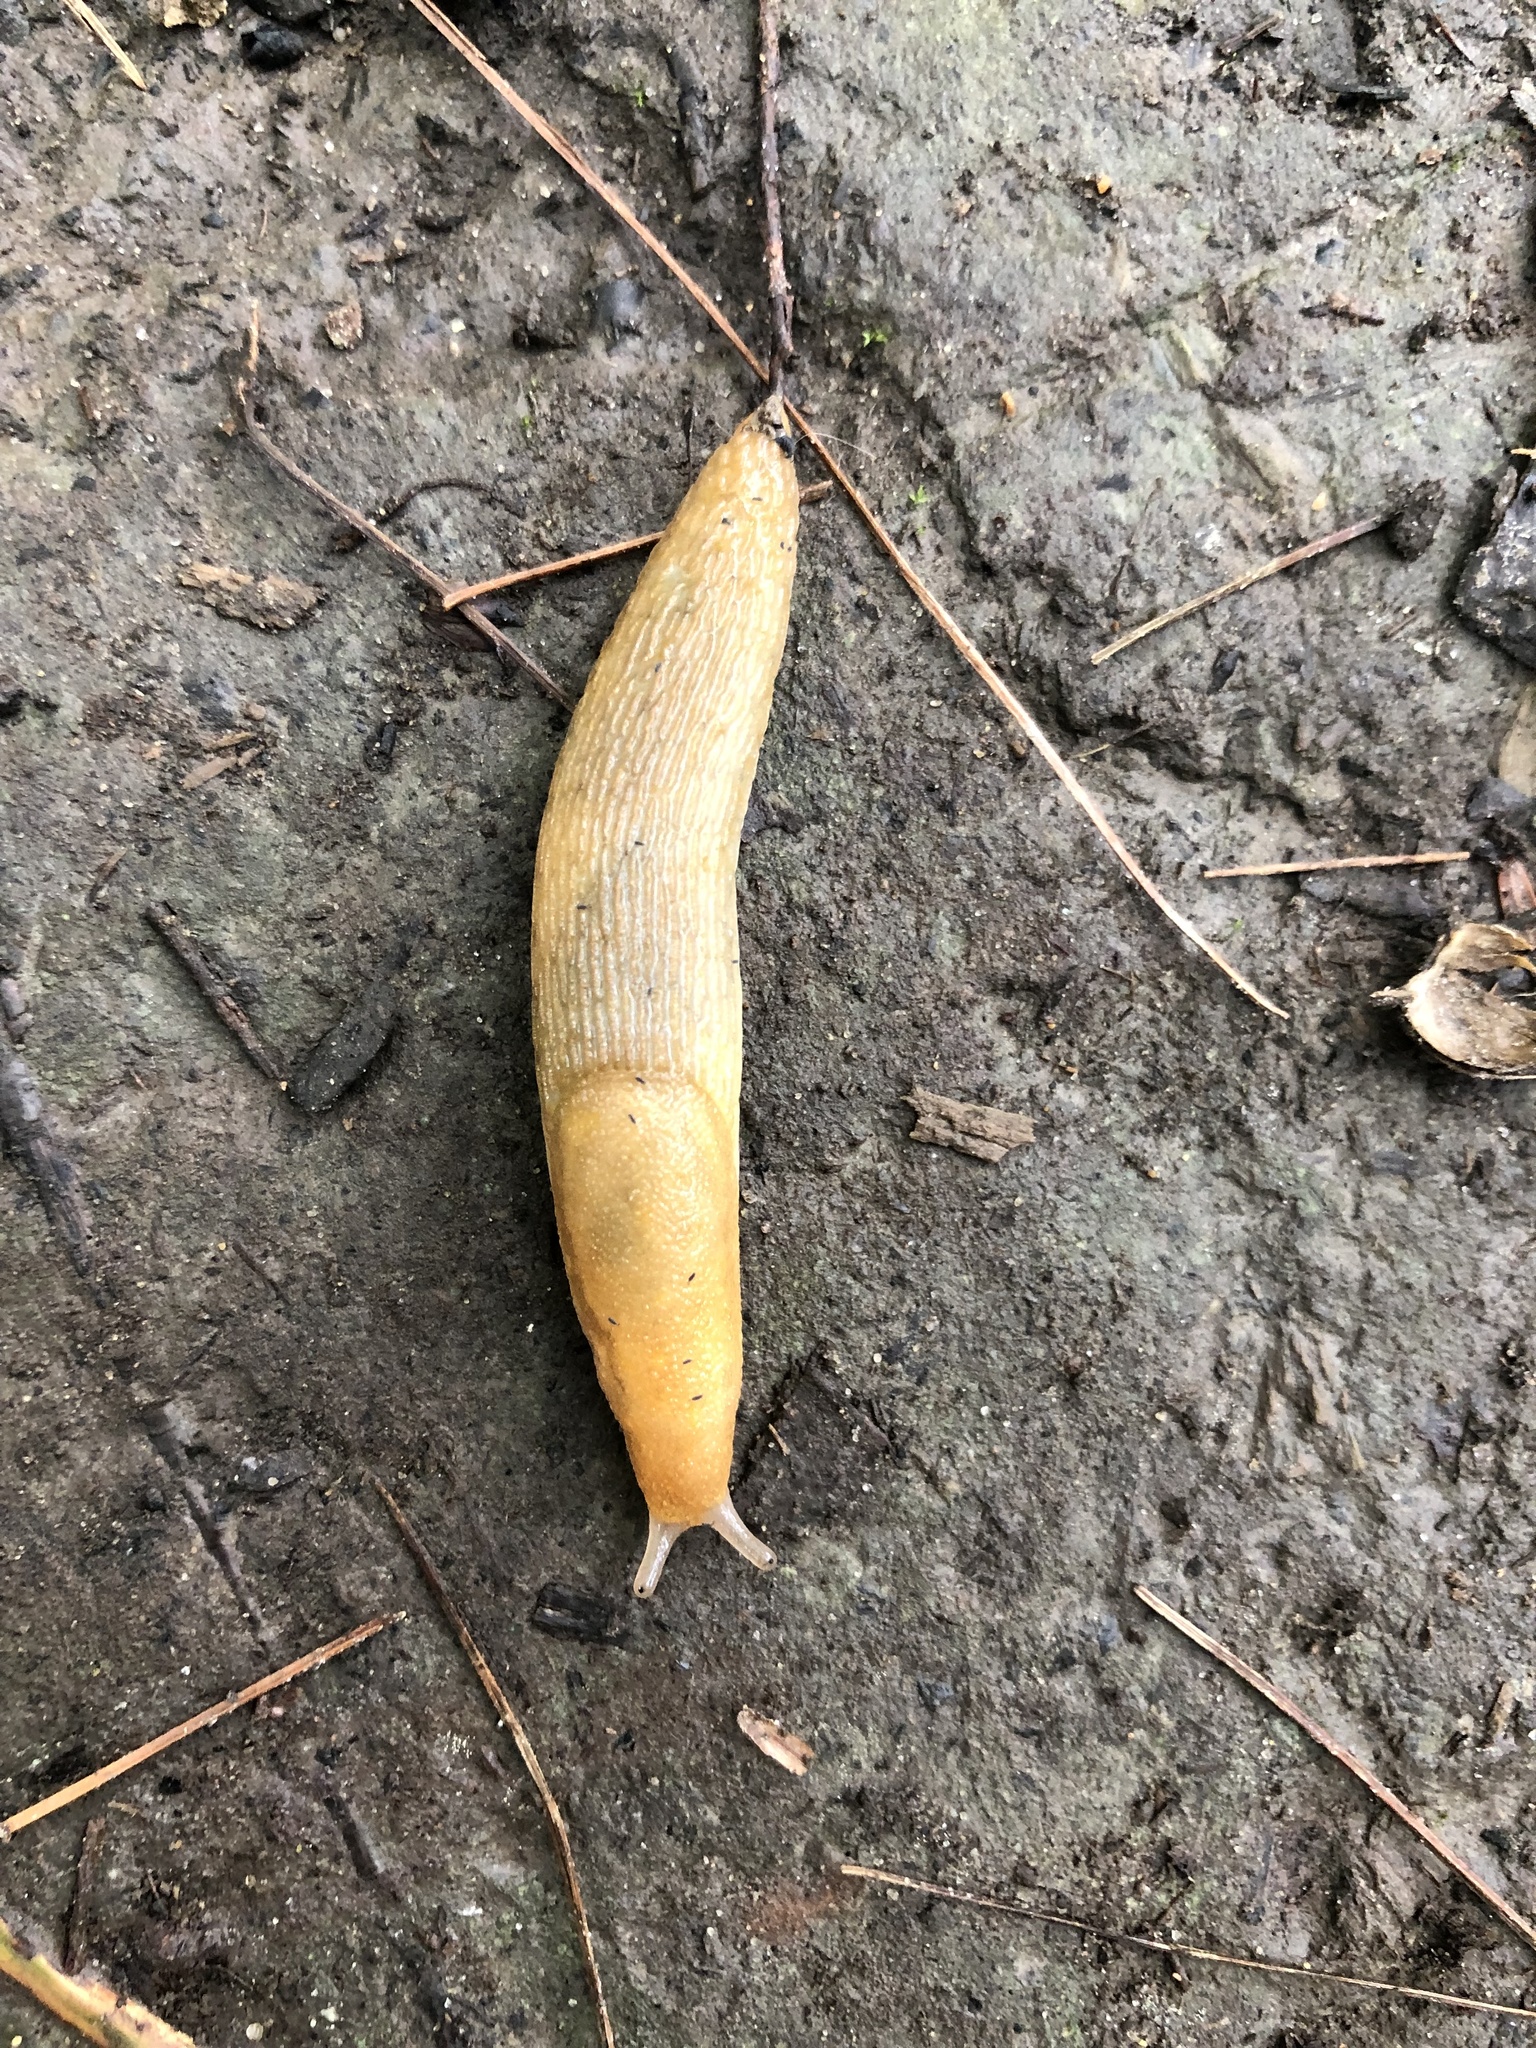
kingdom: Animalia
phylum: Mollusca
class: Gastropoda
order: Stylommatophora
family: Arionidae
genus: Arion
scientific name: Arion subfuscus
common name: Dusky arion
